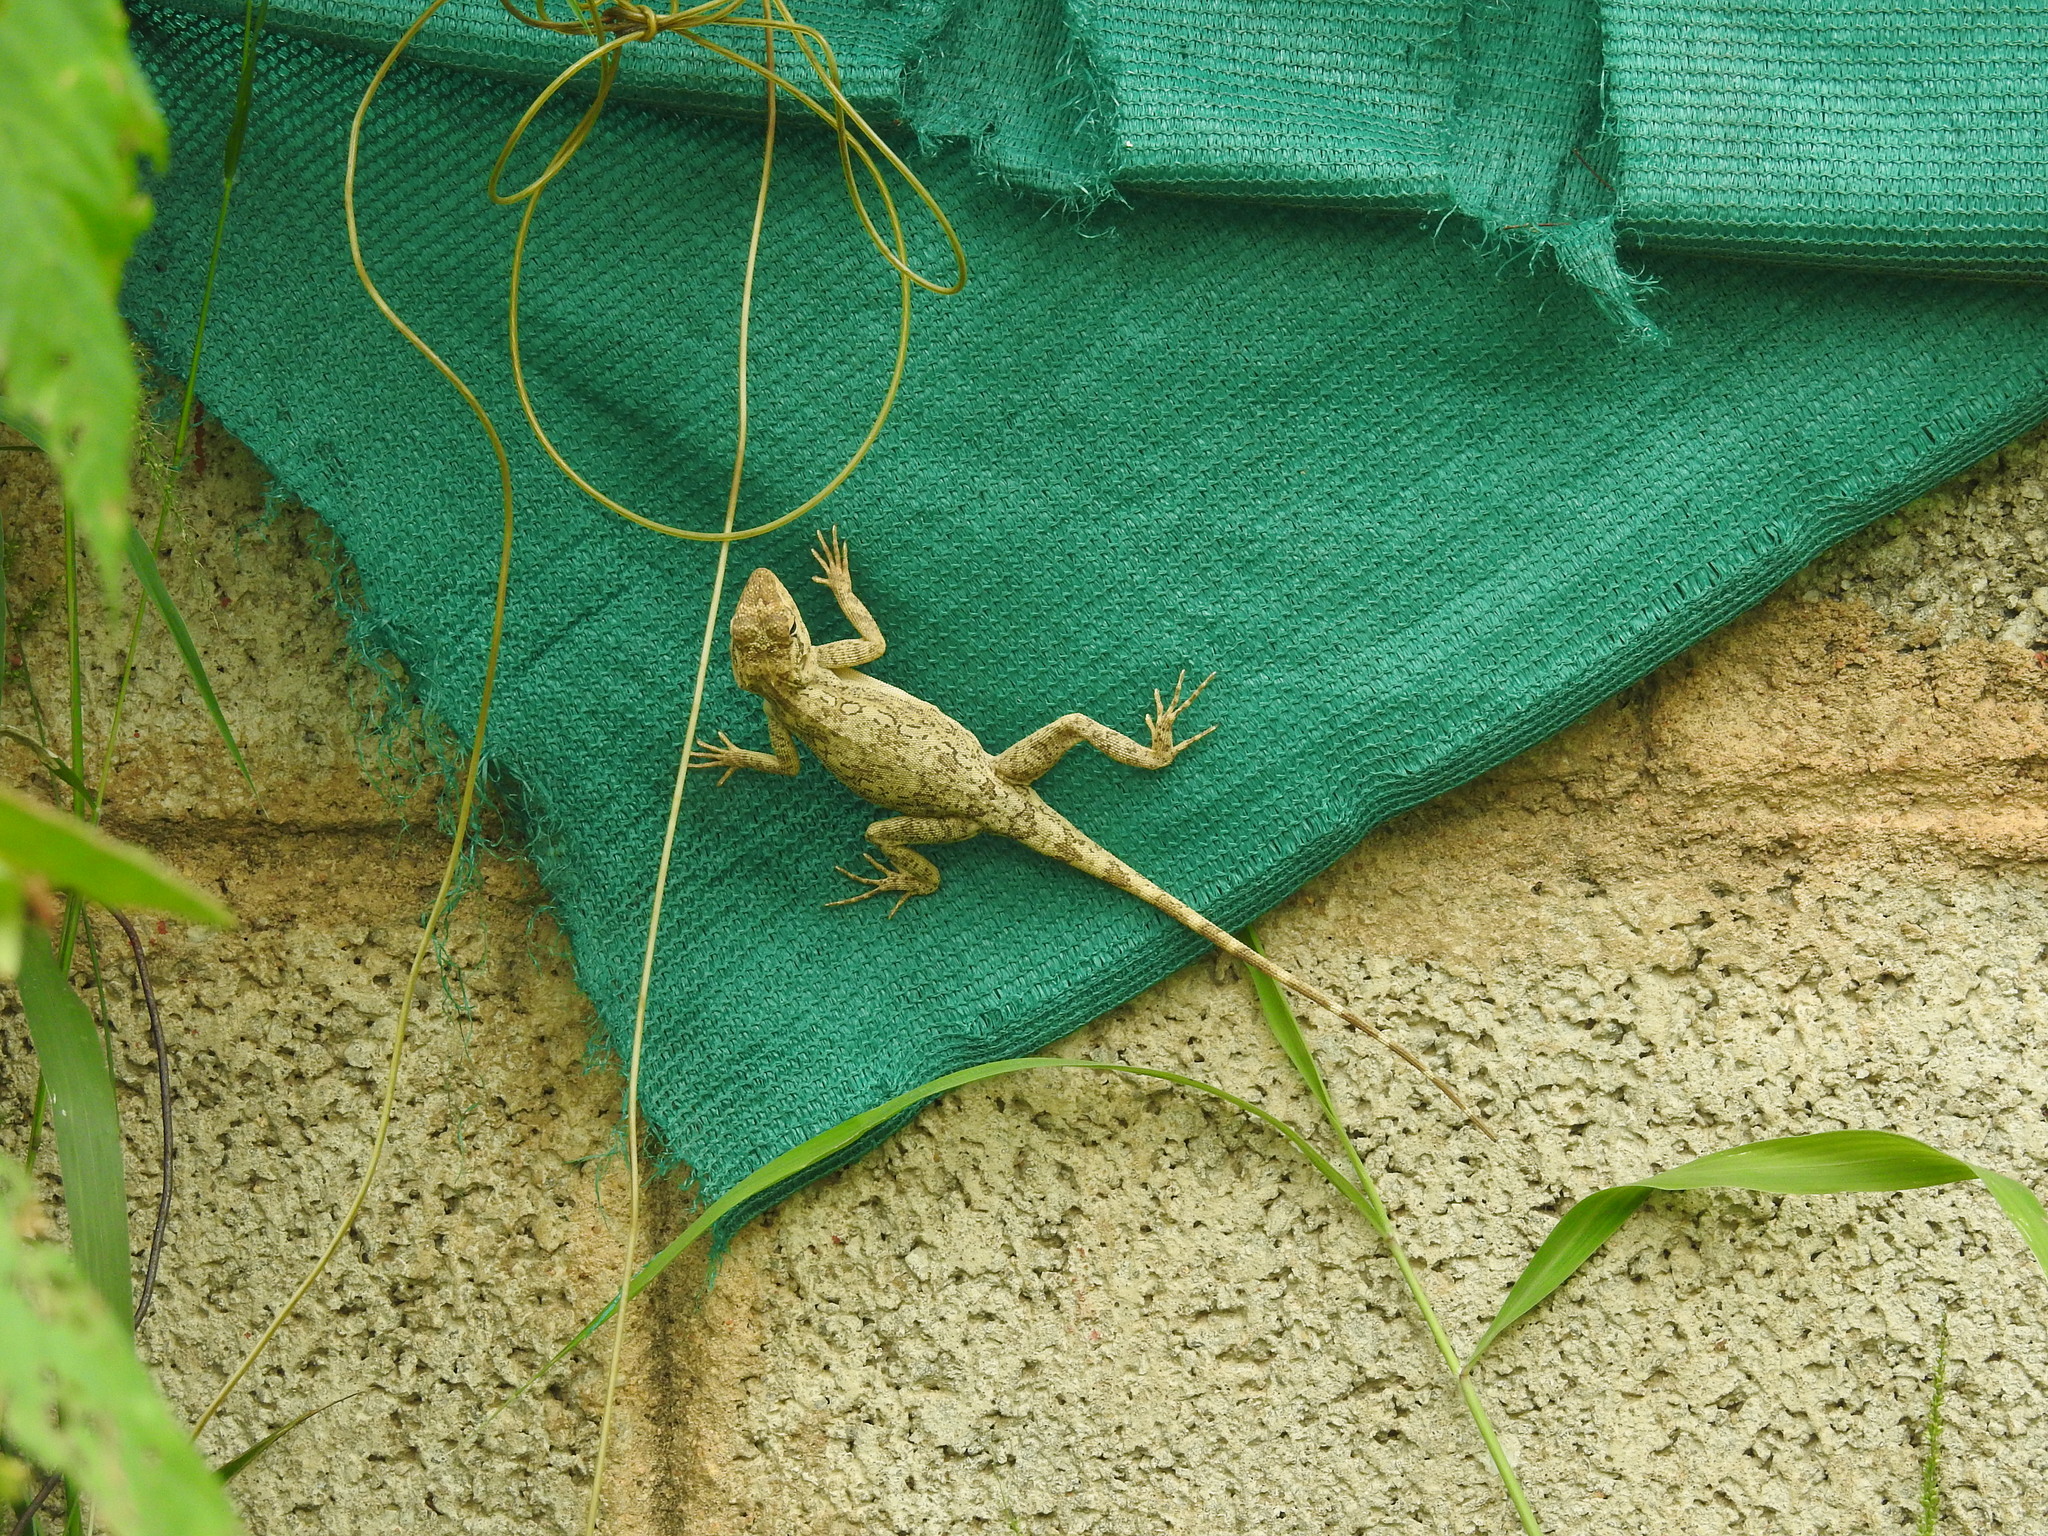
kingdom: Animalia
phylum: Chordata
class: Squamata
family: Agamidae
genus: Psammophilus
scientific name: Psammophilus dorsalis
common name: South indian rock agama
